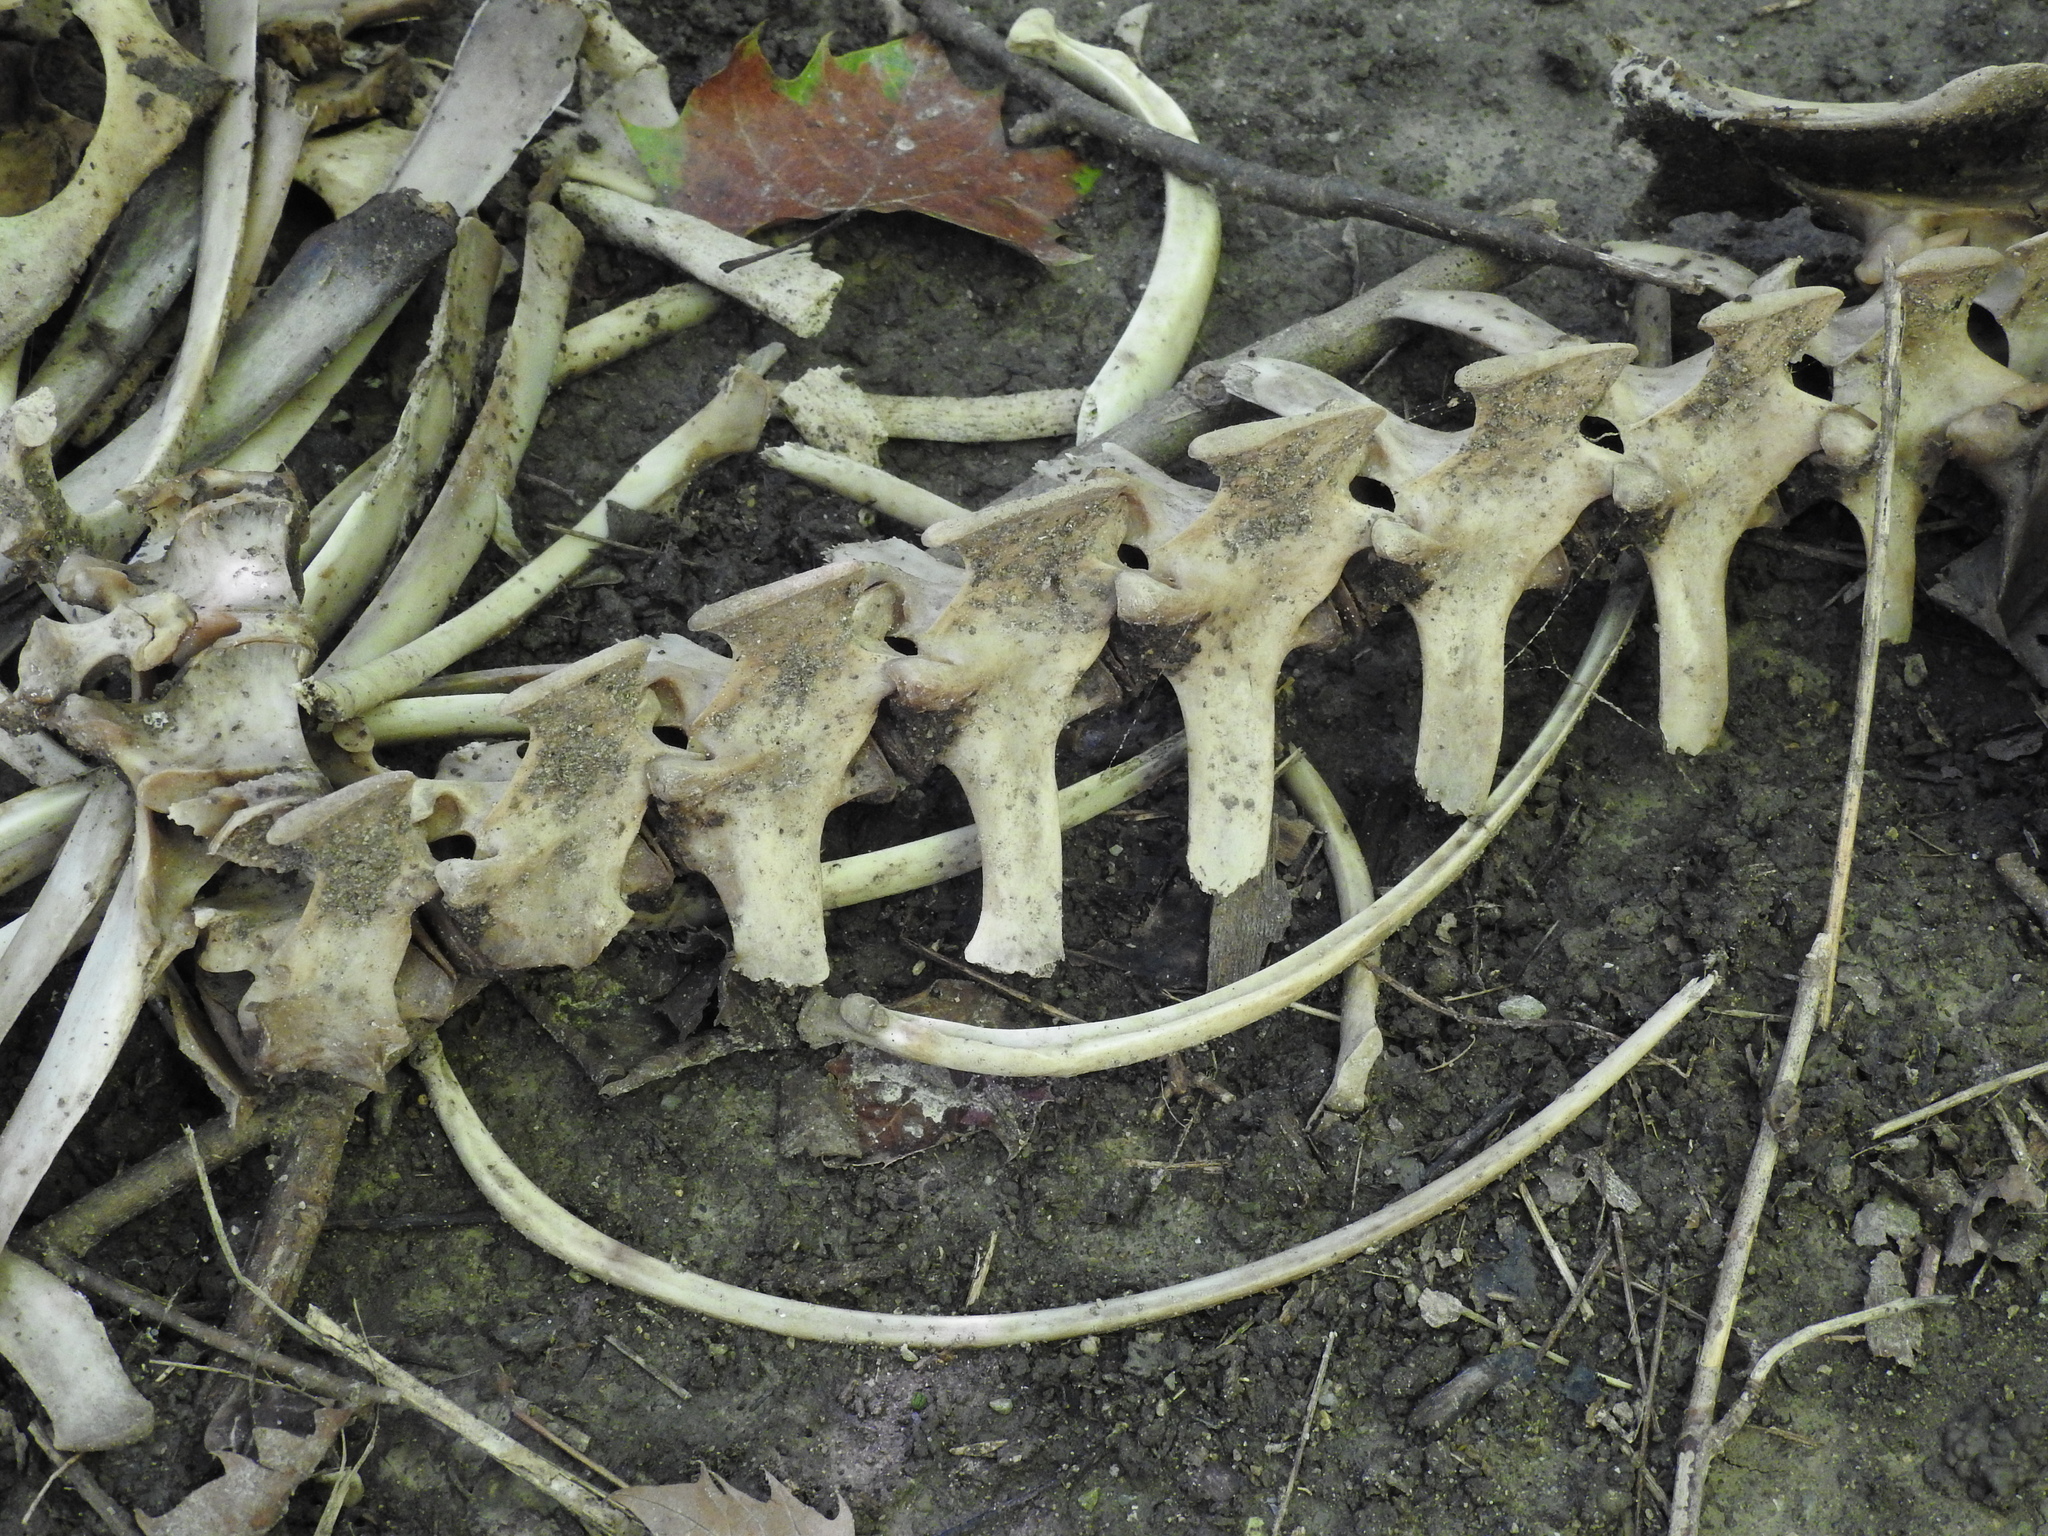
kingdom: Animalia
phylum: Chordata
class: Mammalia
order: Artiodactyla
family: Cervidae
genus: Odocoileus
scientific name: Odocoileus virginianus
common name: White-tailed deer
